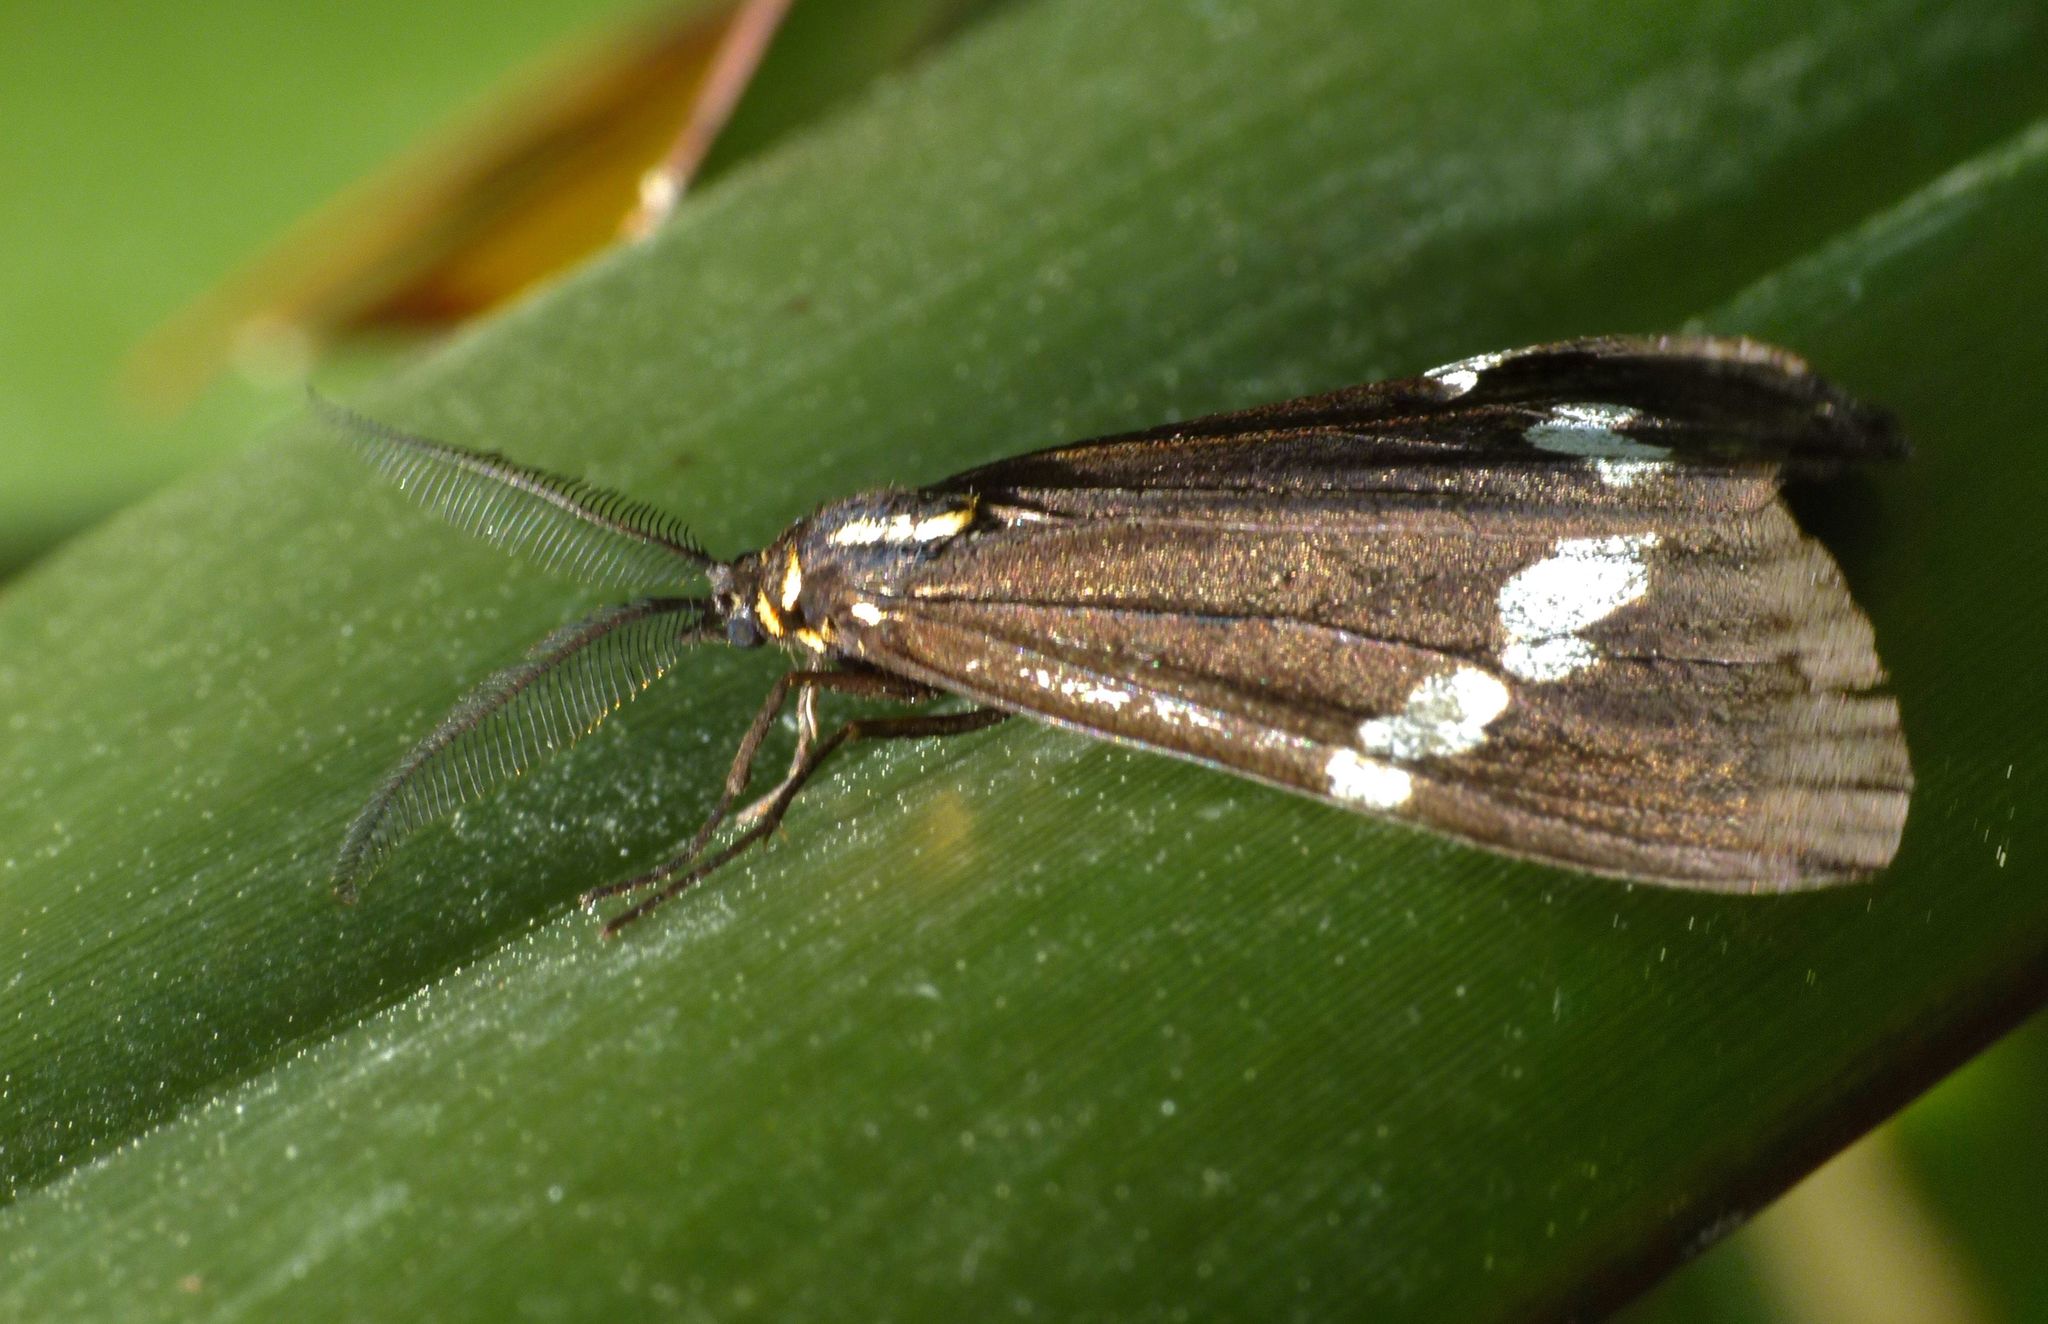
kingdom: Animalia
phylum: Arthropoda
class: Insecta
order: Lepidoptera
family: Erebidae
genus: Nyctemera
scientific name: Nyctemera annulatum
